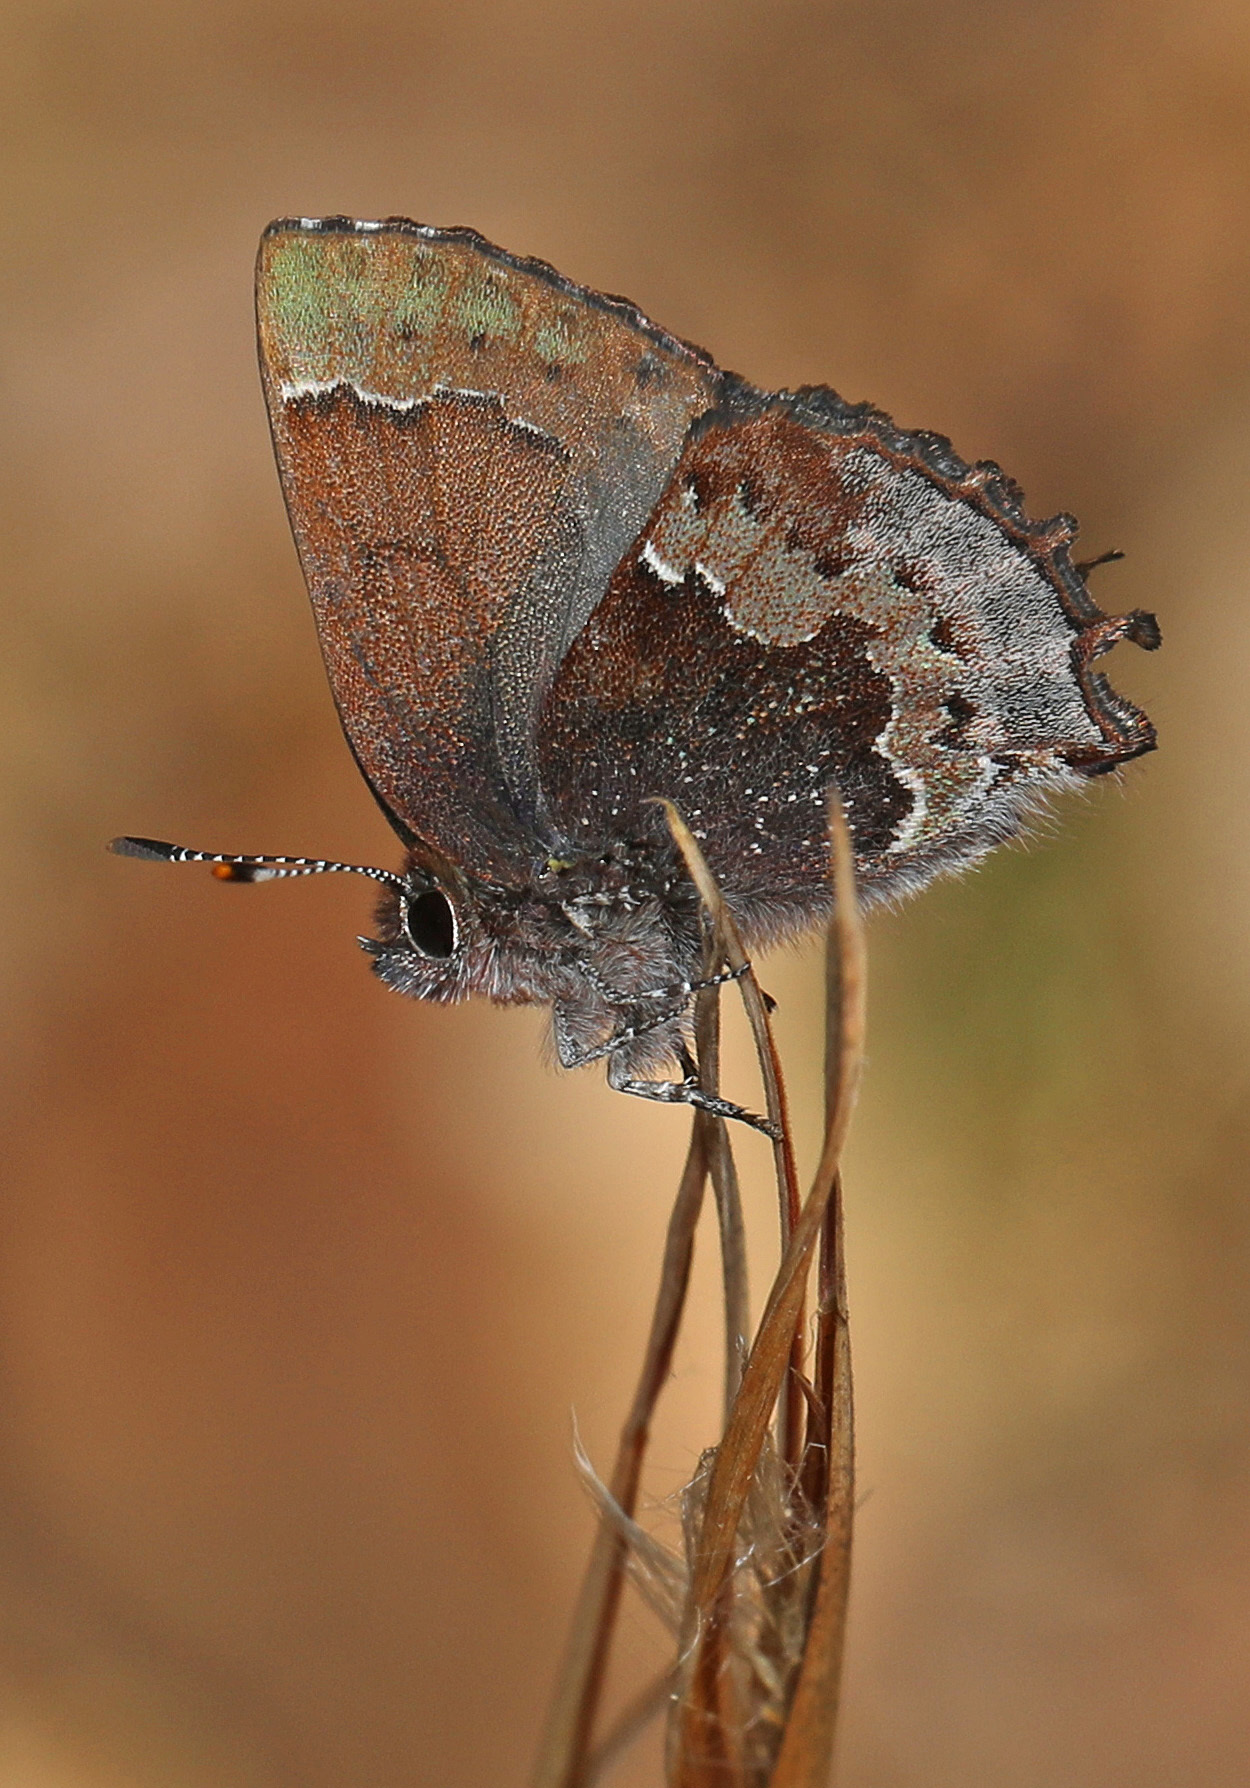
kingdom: Animalia
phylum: Arthropoda
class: Insecta
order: Lepidoptera
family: Lycaenidae
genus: Incisalia
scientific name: Incisalia henrici
